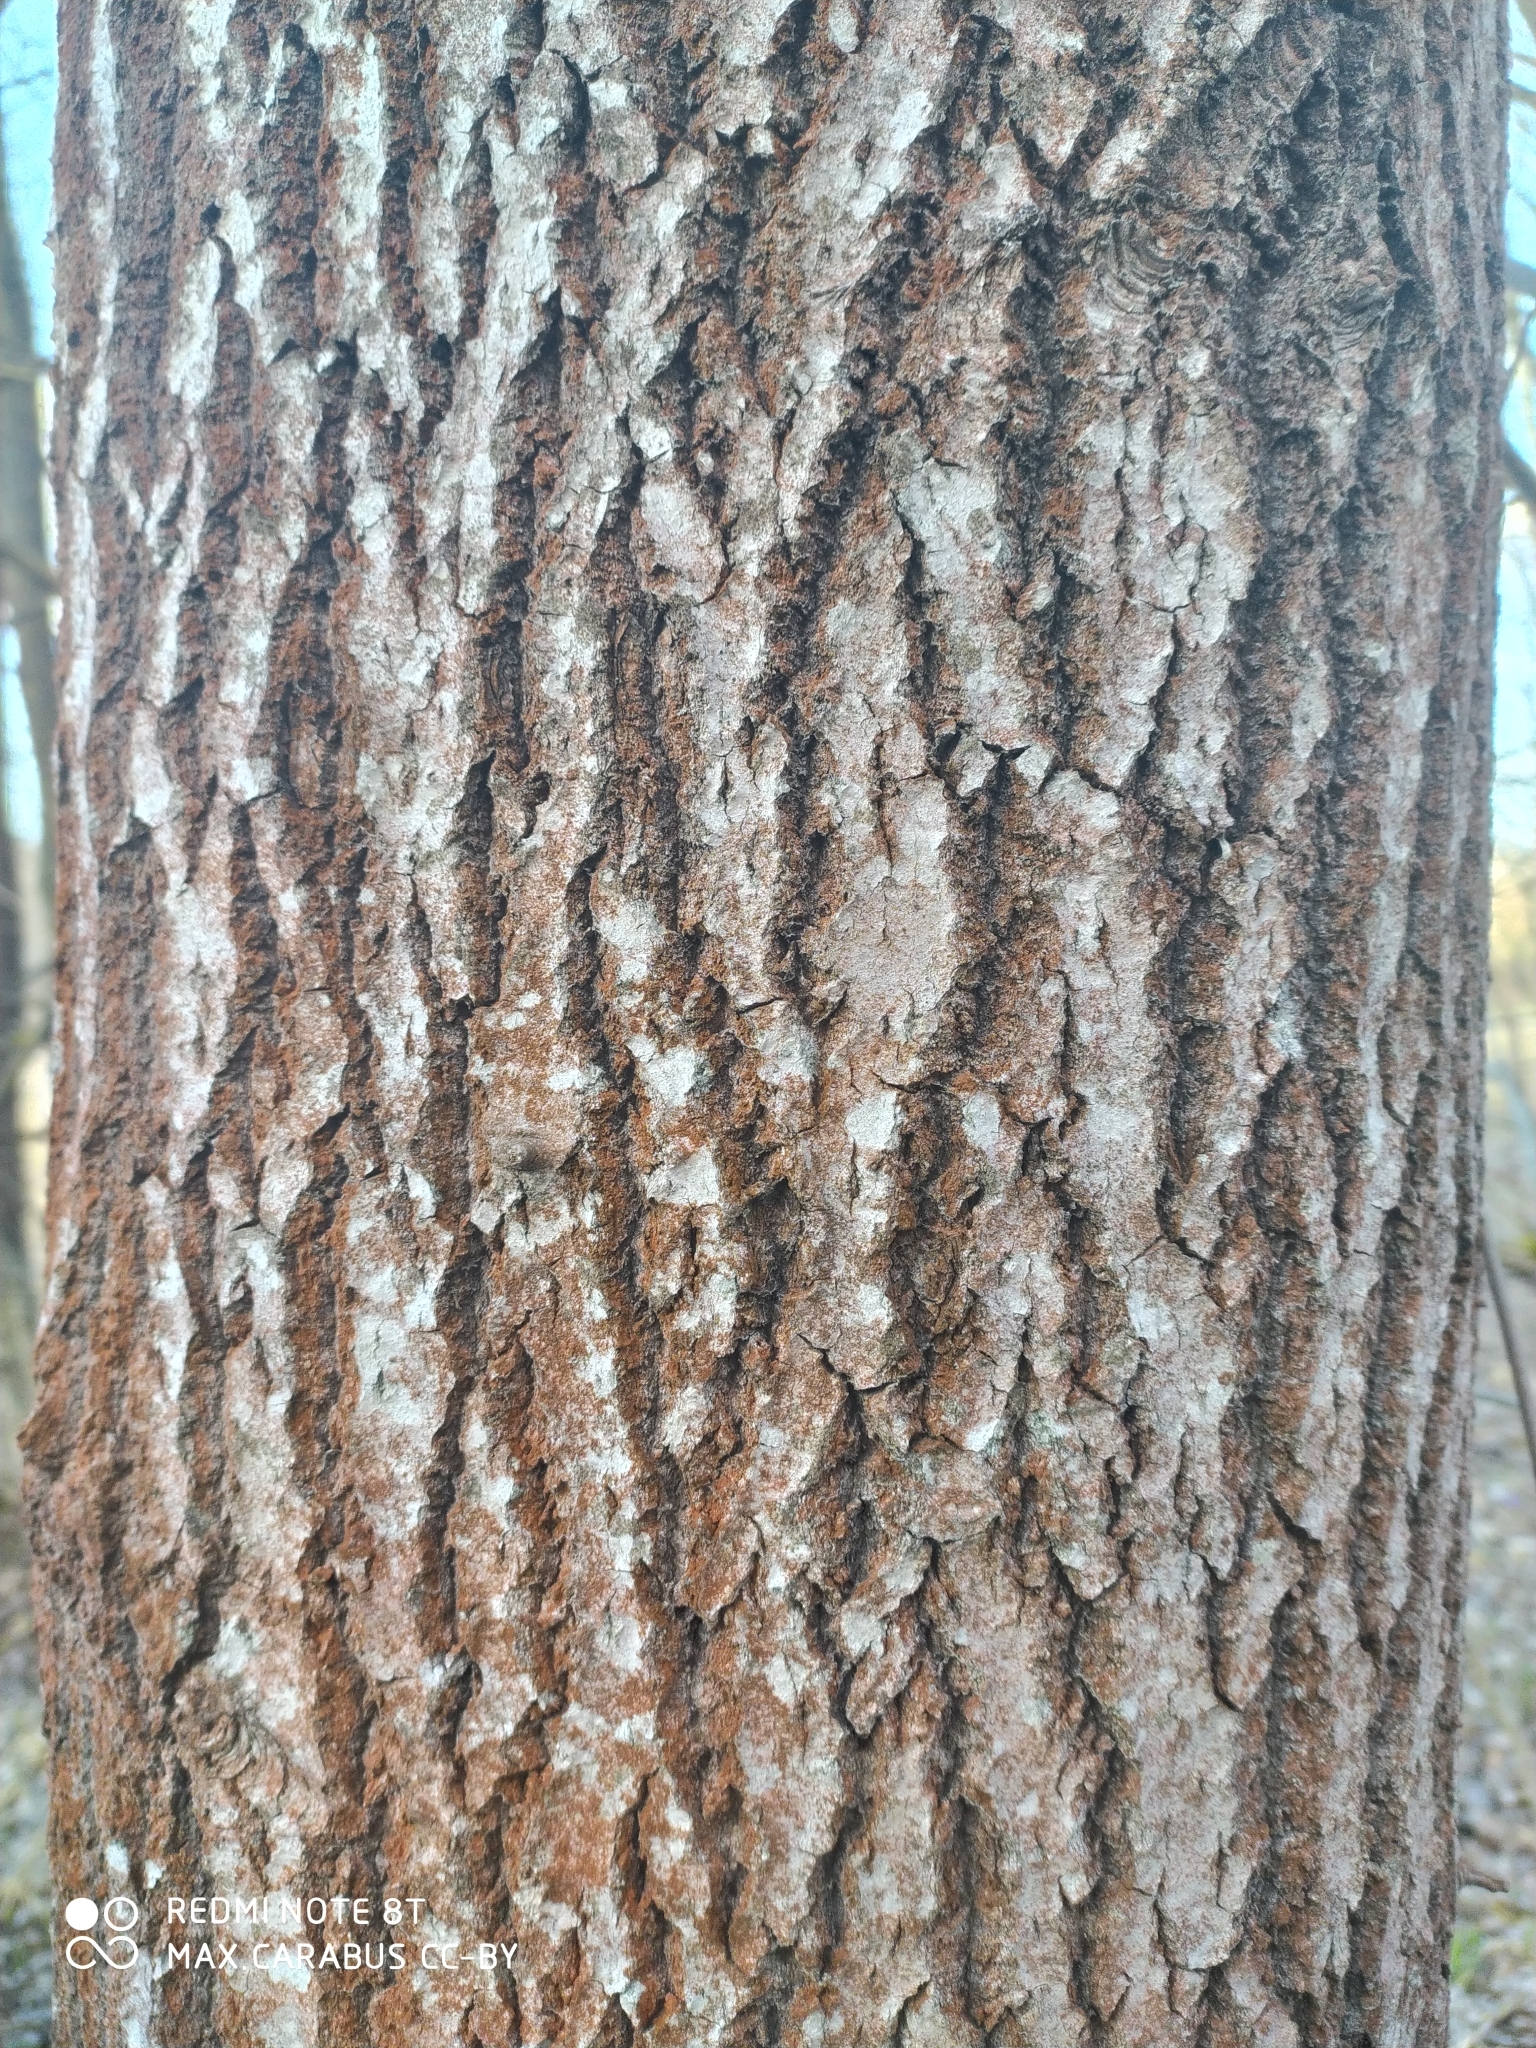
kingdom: Plantae
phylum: Tracheophyta
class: Magnoliopsida
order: Malpighiales
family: Salicaceae
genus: Populus
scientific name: Populus tremula
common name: European aspen
